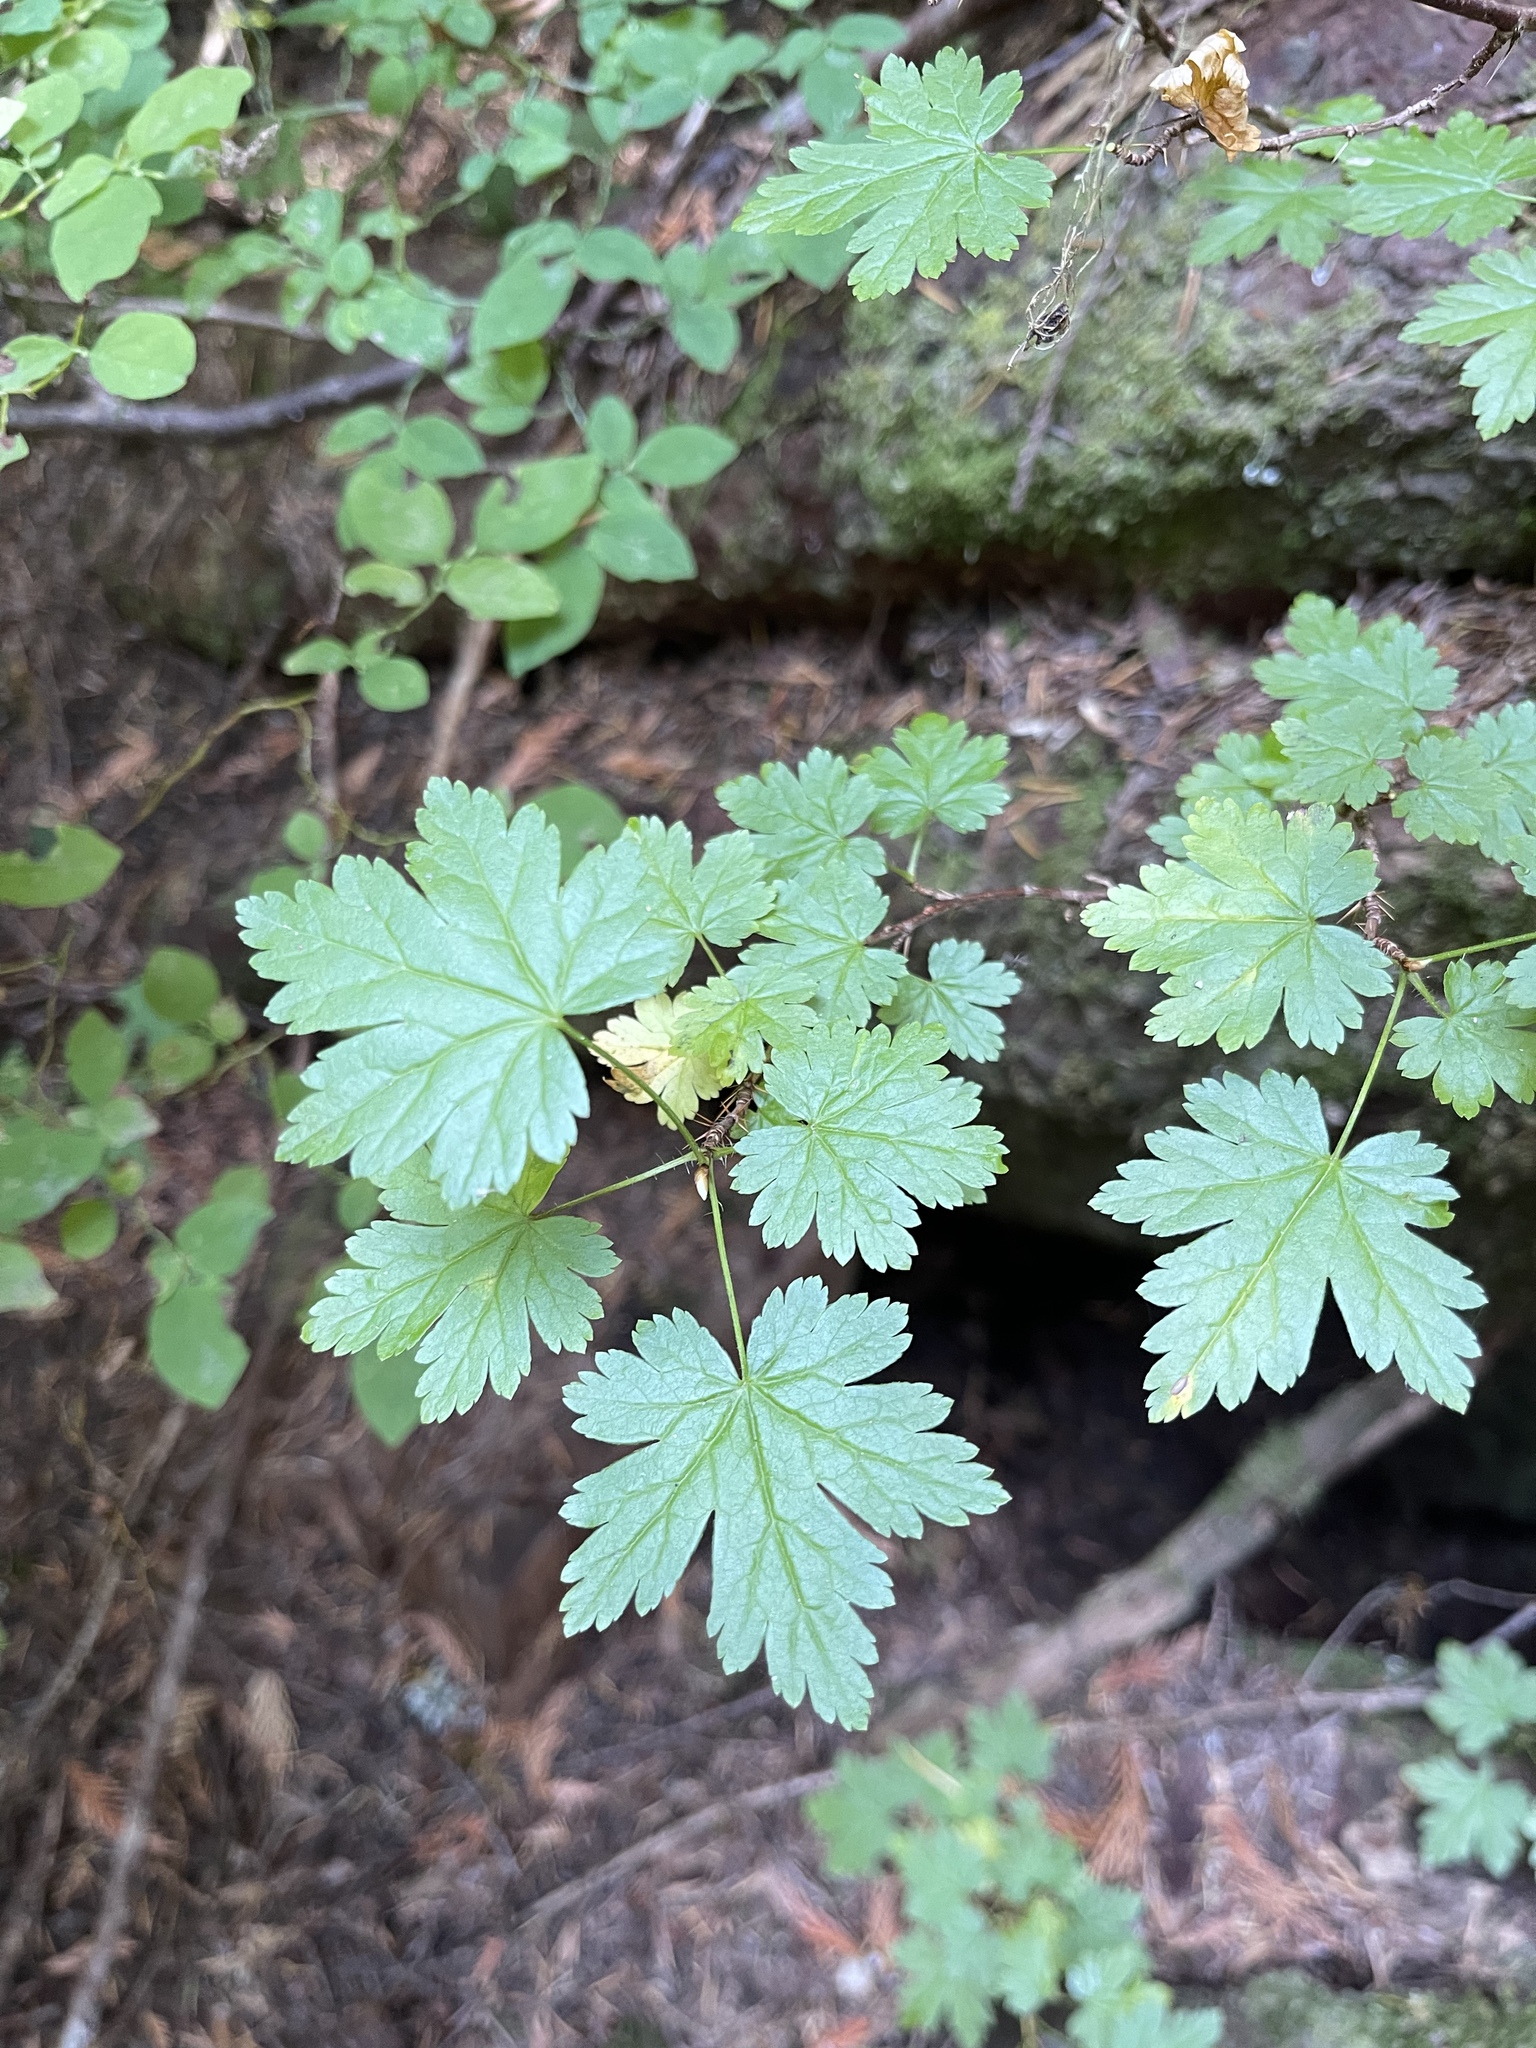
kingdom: Plantae
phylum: Tracheophyta
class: Magnoliopsida
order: Saxifragales
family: Grossulariaceae
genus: Ribes
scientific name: Ribes lacustre
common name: Black gooseberry
